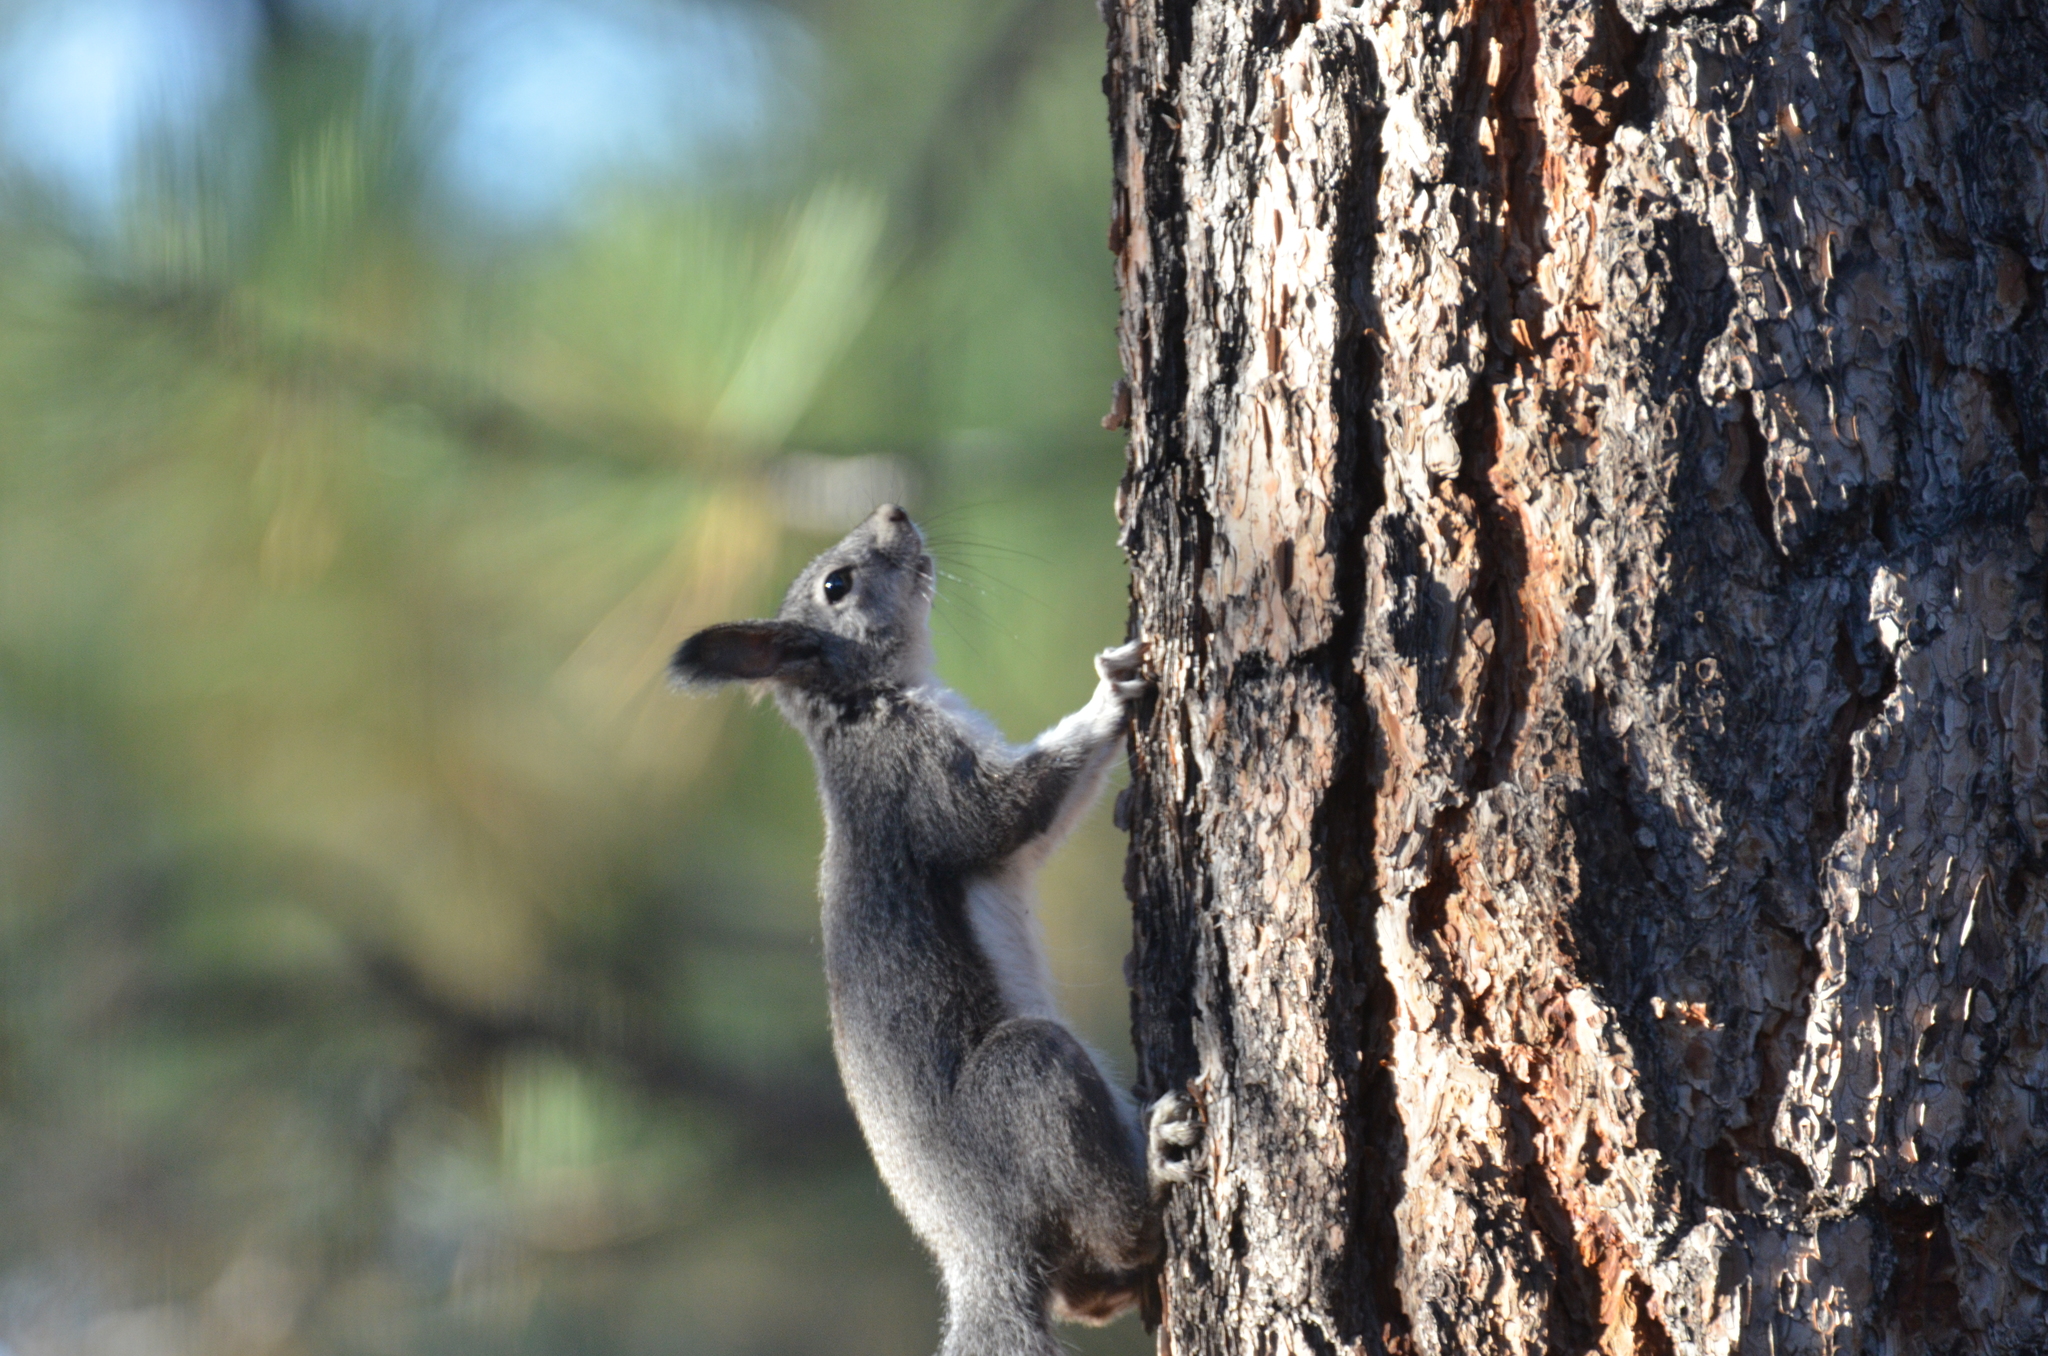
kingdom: Animalia
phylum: Chordata
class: Mammalia
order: Rodentia
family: Sciuridae
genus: Sciurus
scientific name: Sciurus aberti
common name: Abert's squirrel
